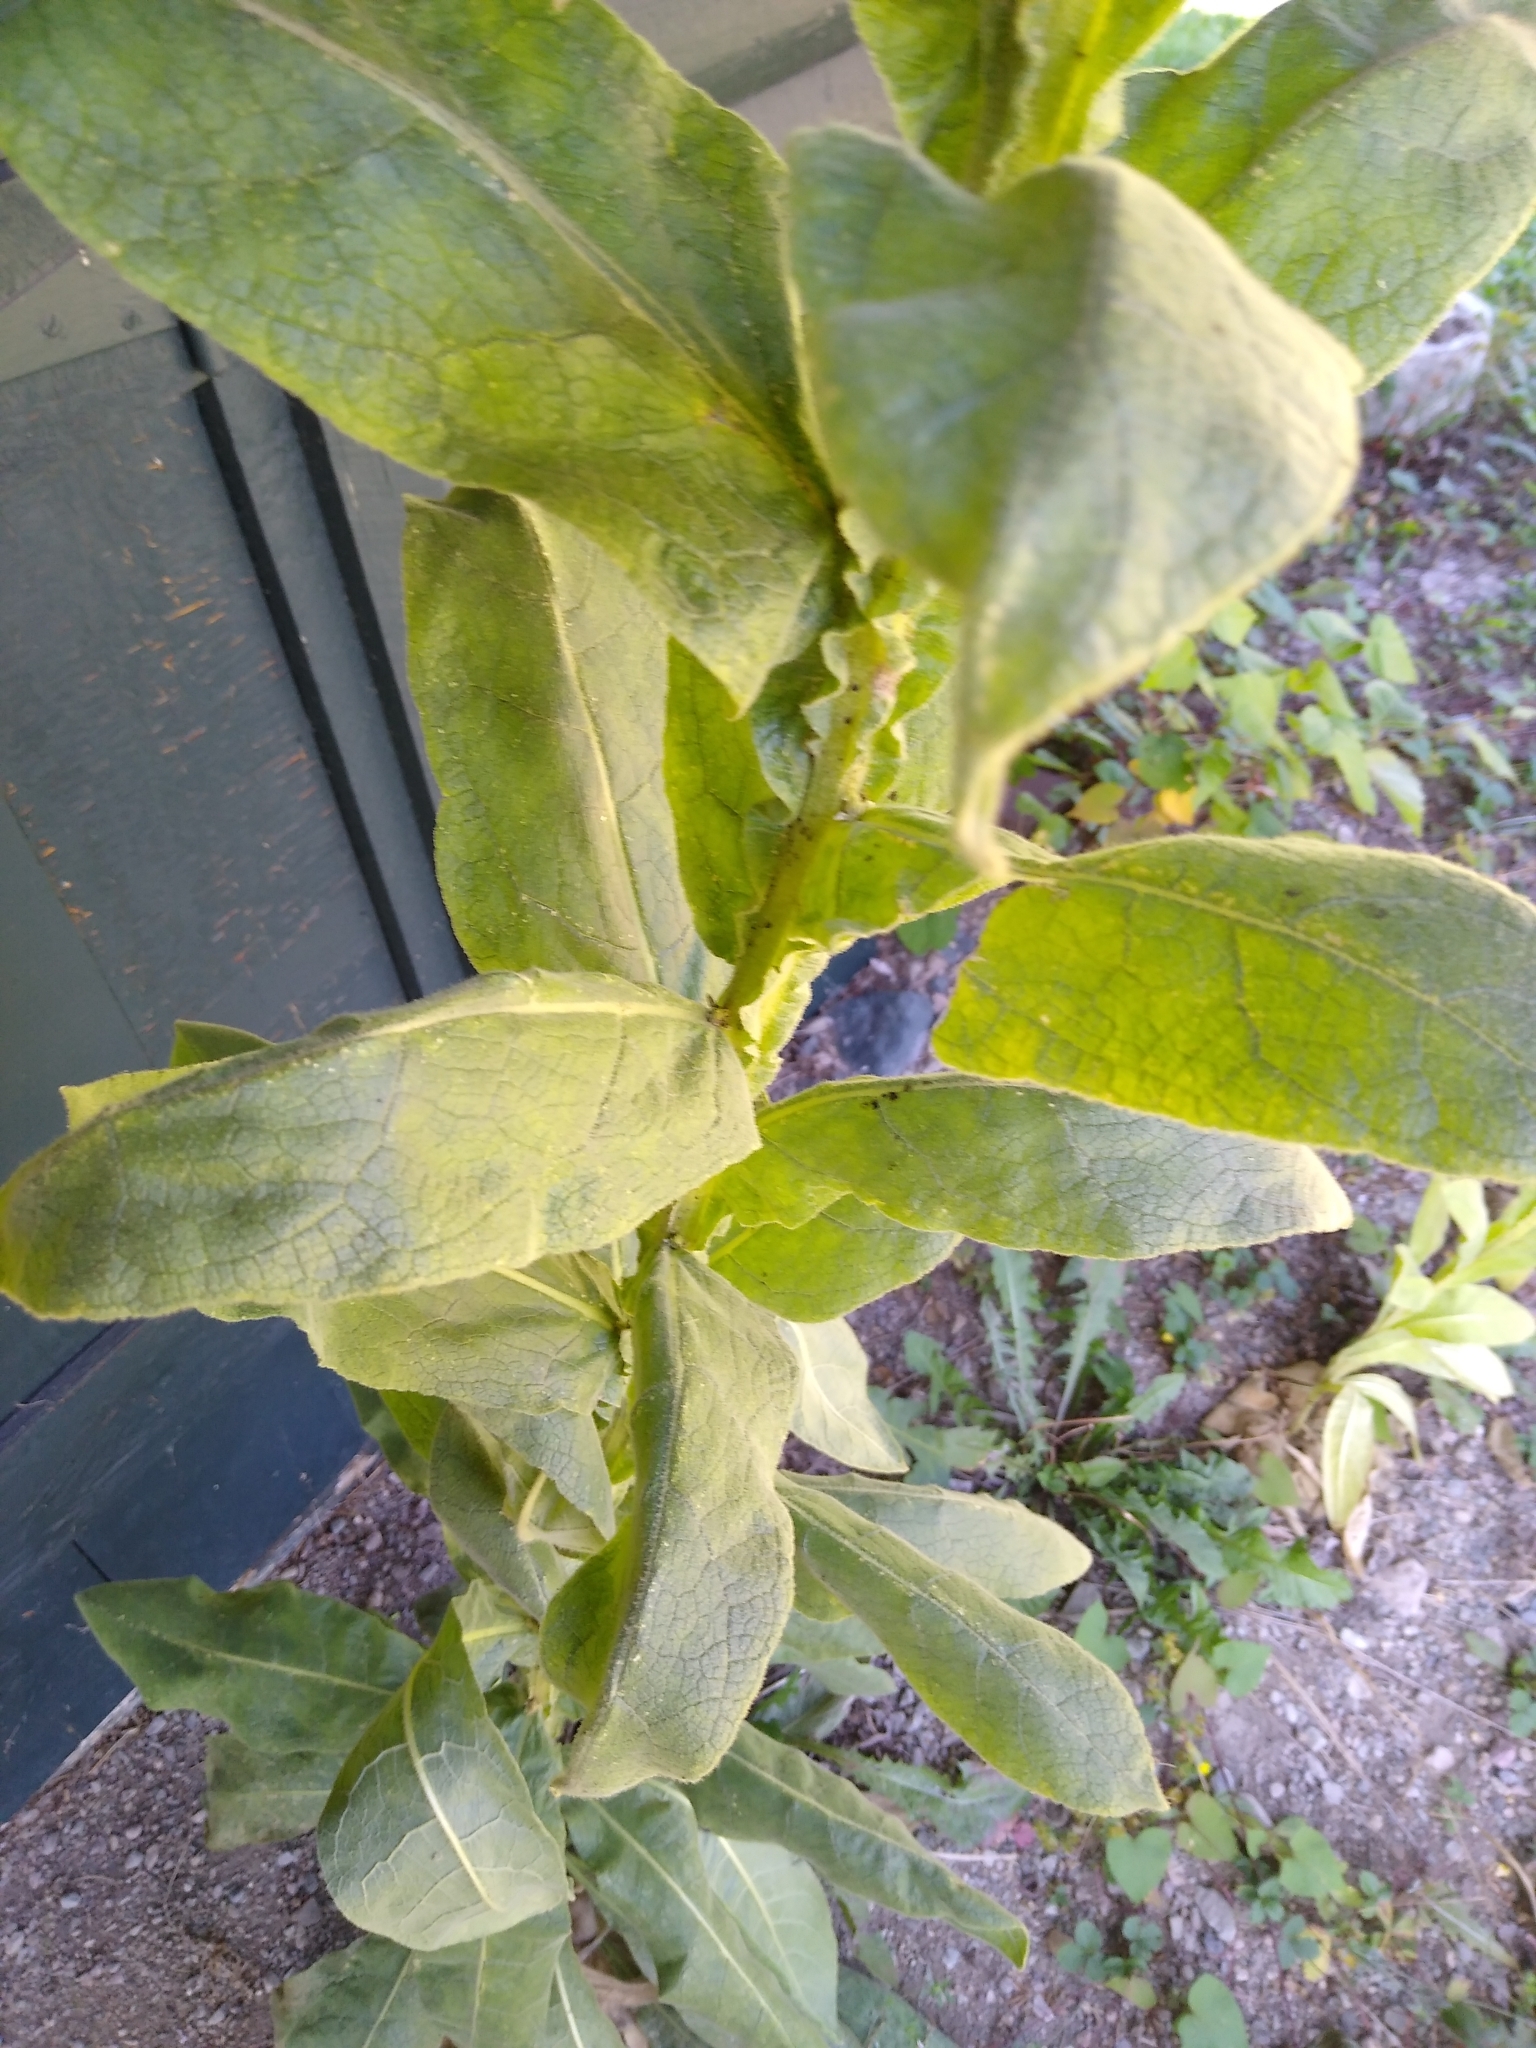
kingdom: Plantae
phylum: Tracheophyta
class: Magnoliopsida
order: Lamiales
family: Scrophulariaceae
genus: Verbascum
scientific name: Verbascum thapsus
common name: Common mullein
